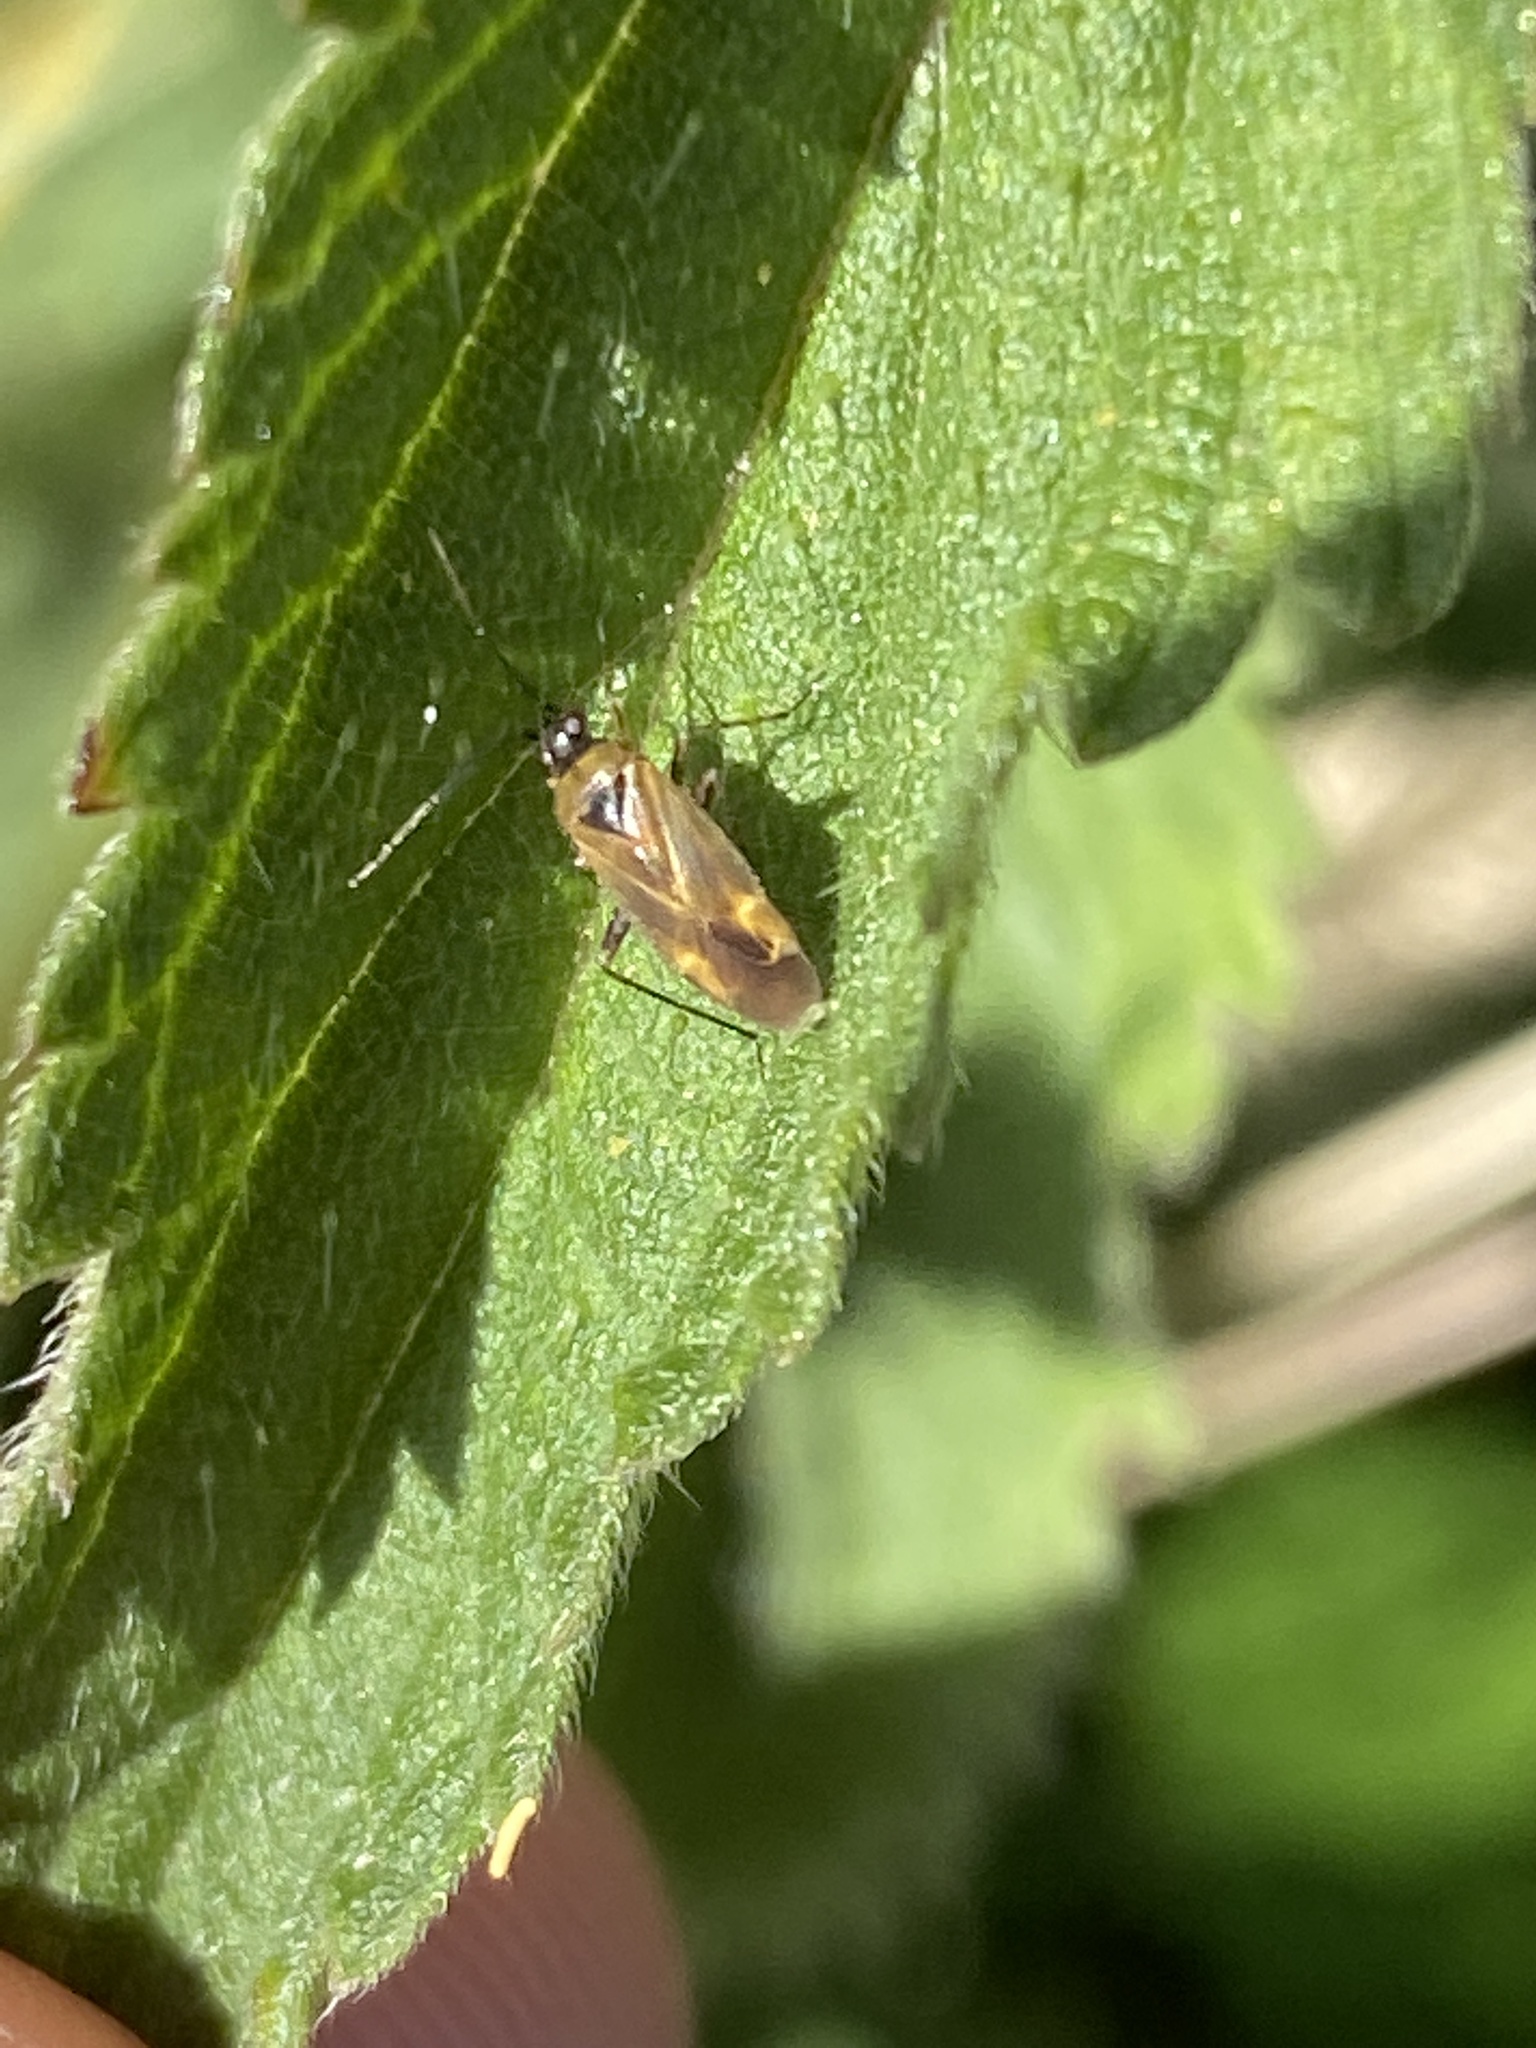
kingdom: Animalia
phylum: Arthropoda
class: Insecta
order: Hemiptera
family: Miridae
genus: Plagiognathus
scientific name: Plagiognathus arbustorum
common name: Plant bug
